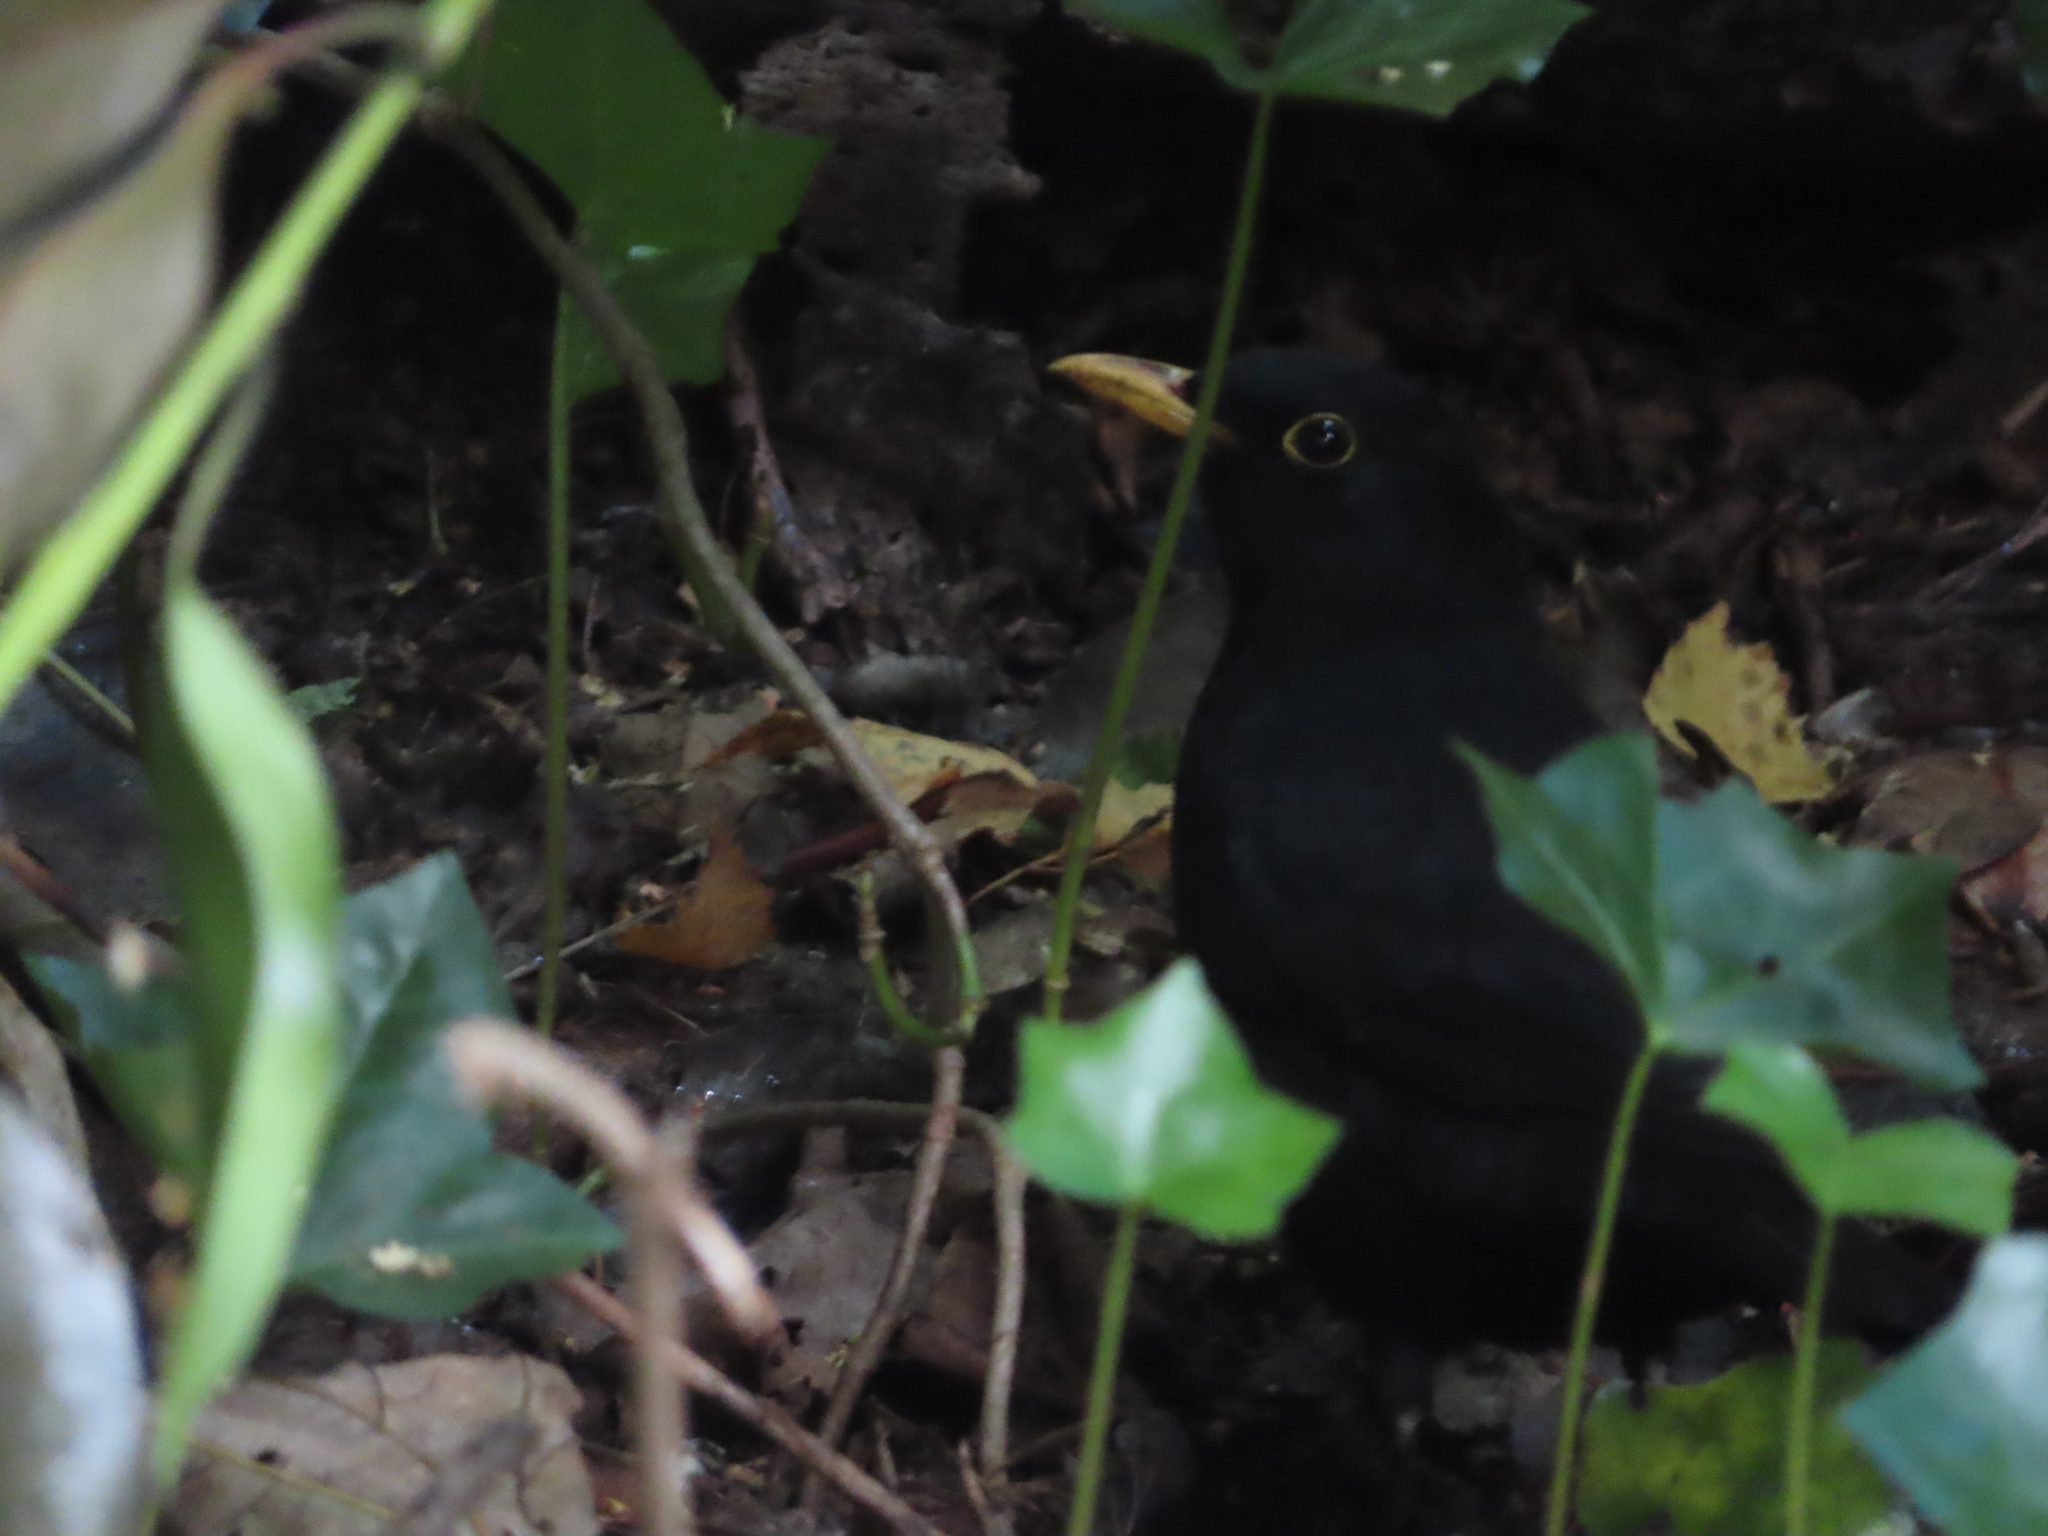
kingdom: Animalia
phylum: Chordata
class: Aves
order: Passeriformes
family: Turdidae
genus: Turdus
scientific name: Turdus merula
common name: Common blackbird
